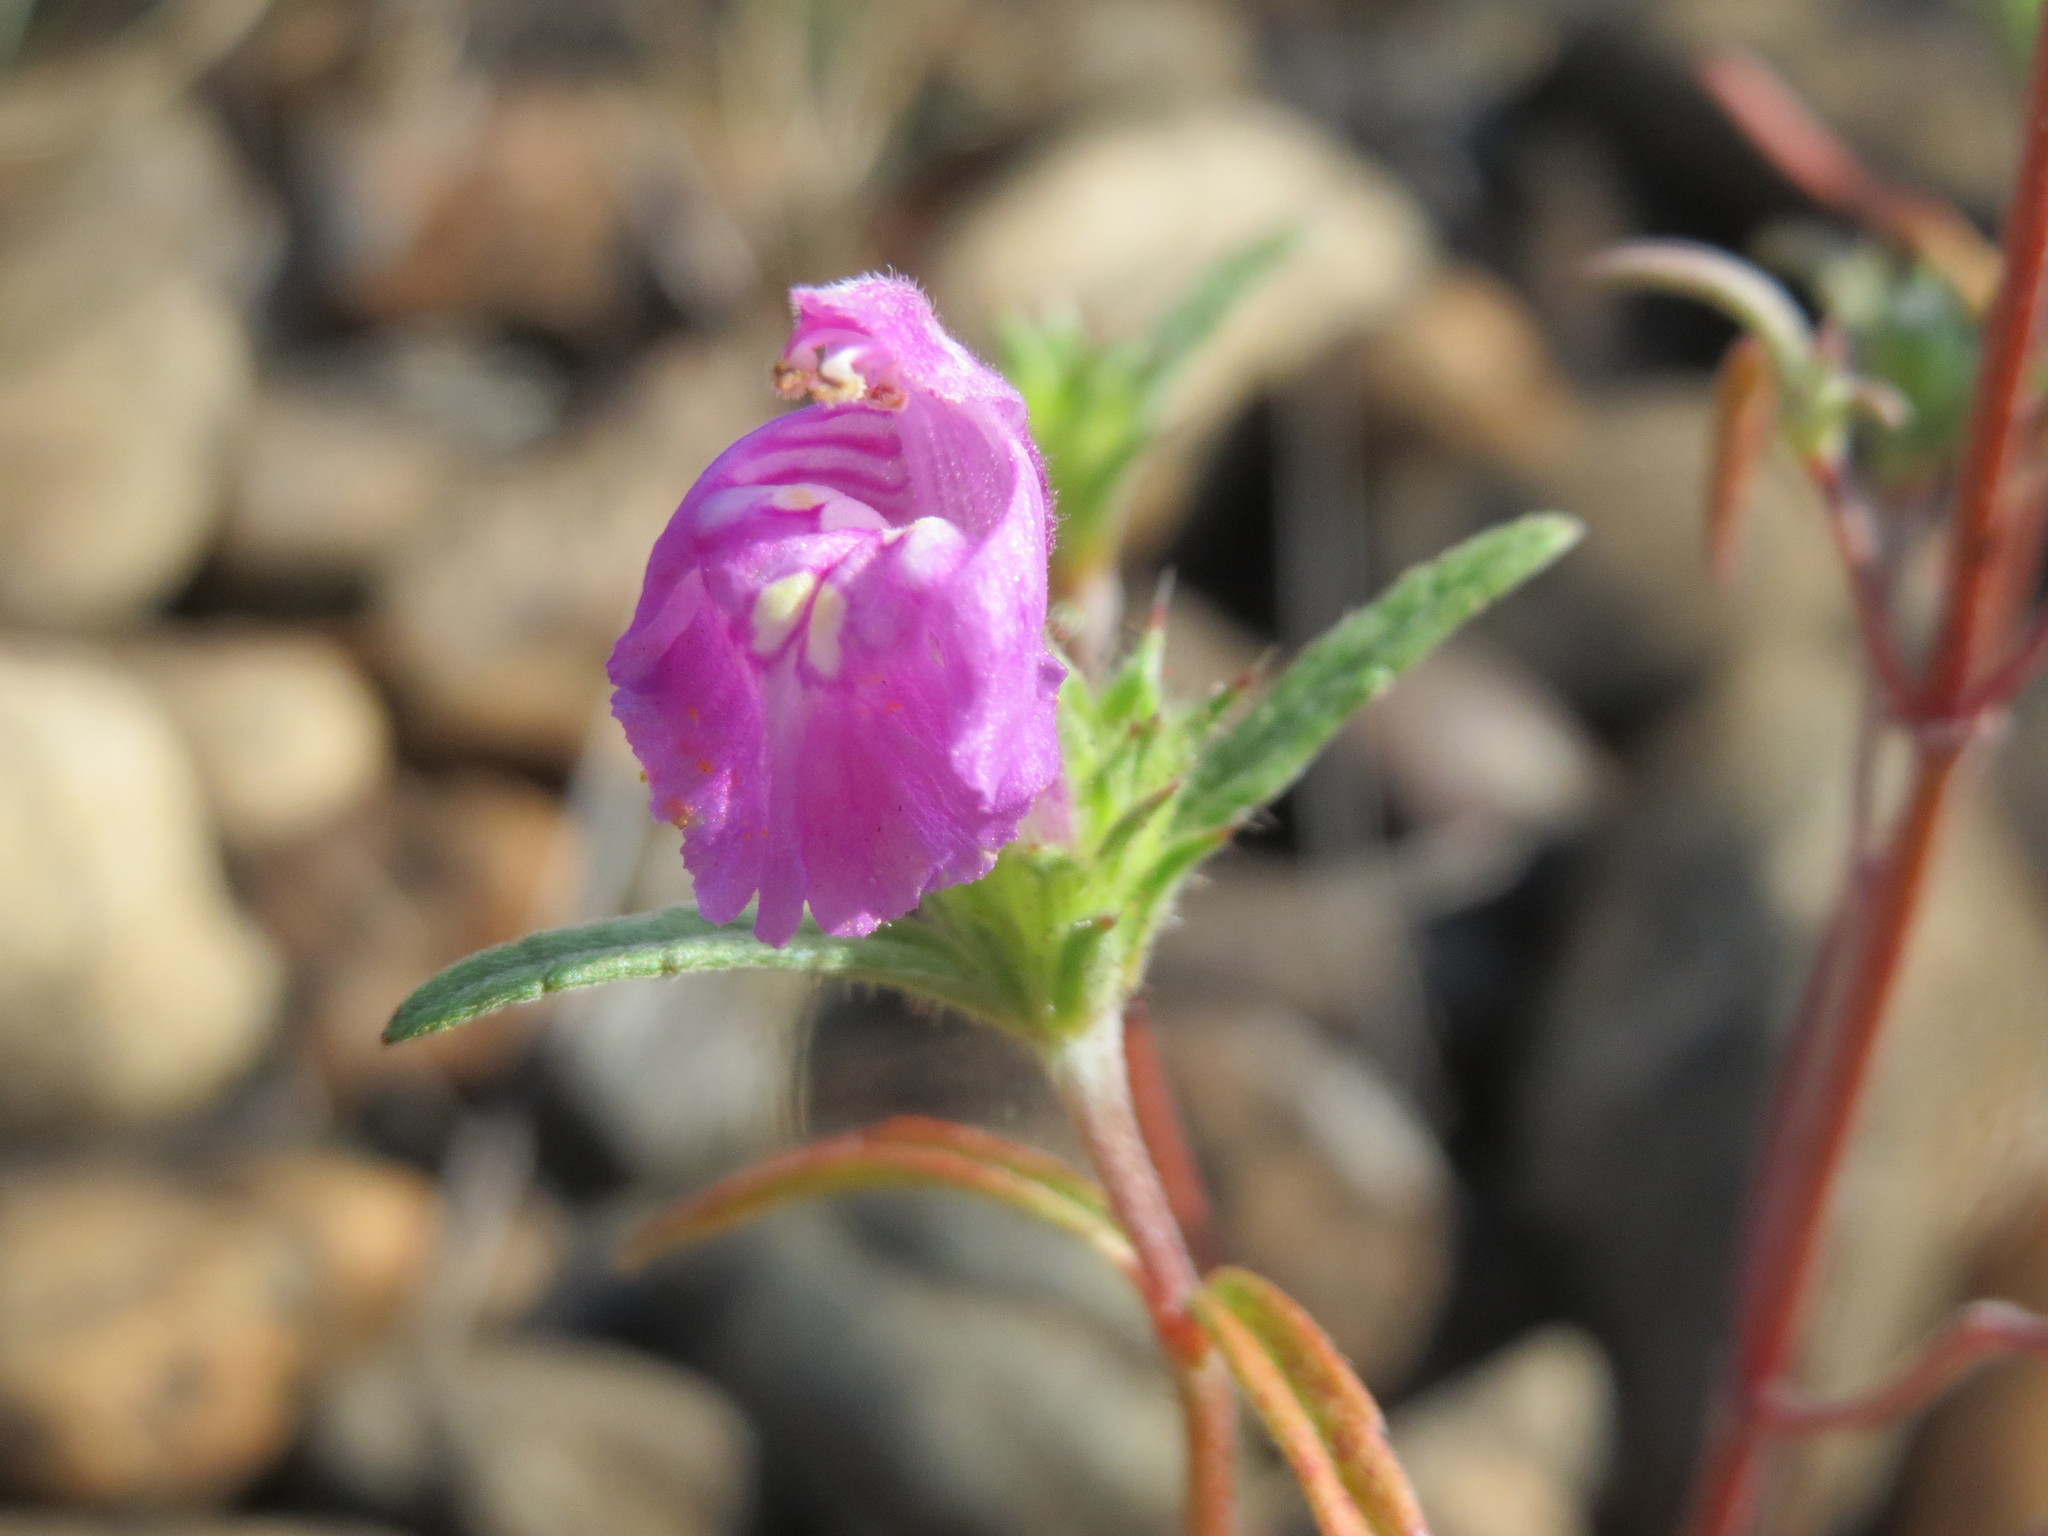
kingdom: Plantae
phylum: Tracheophyta
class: Magnoliopsida
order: Lamiales
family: Lamiaceae
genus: Galeopsis
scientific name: Galeopsis angustifolia
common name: Red hemp-nettle
